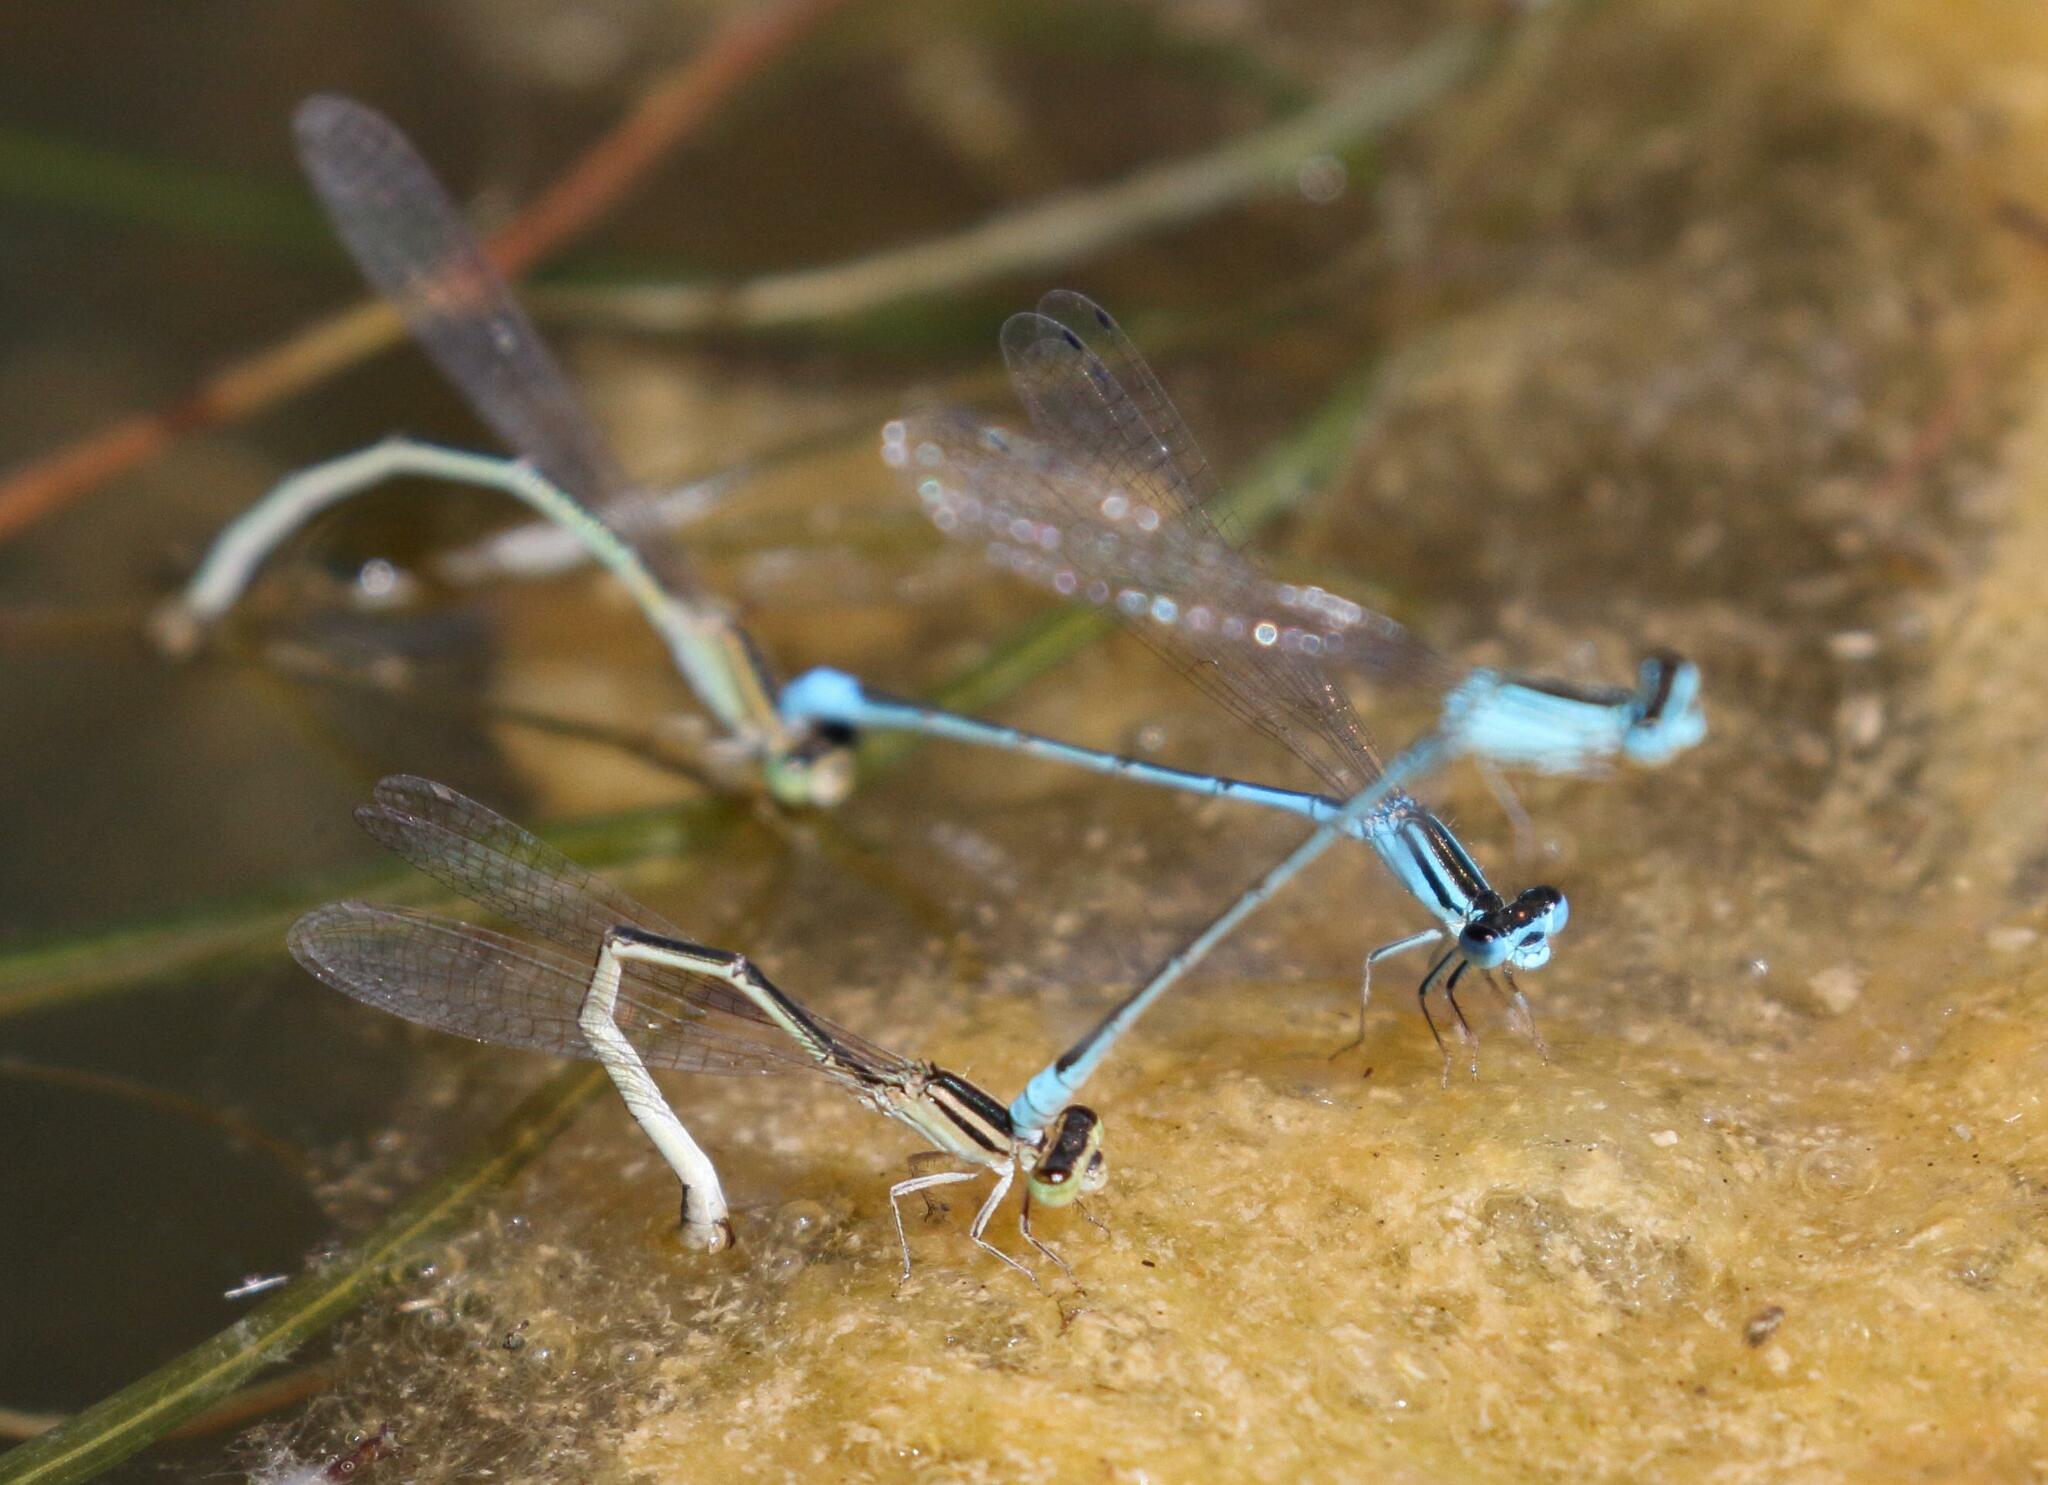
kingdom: Animalia
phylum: Arthropoda
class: Insecta
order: Odonata
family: Coenagrionidae
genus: Africallagma
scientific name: Africallagma glaucum
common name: Swamp bluet
